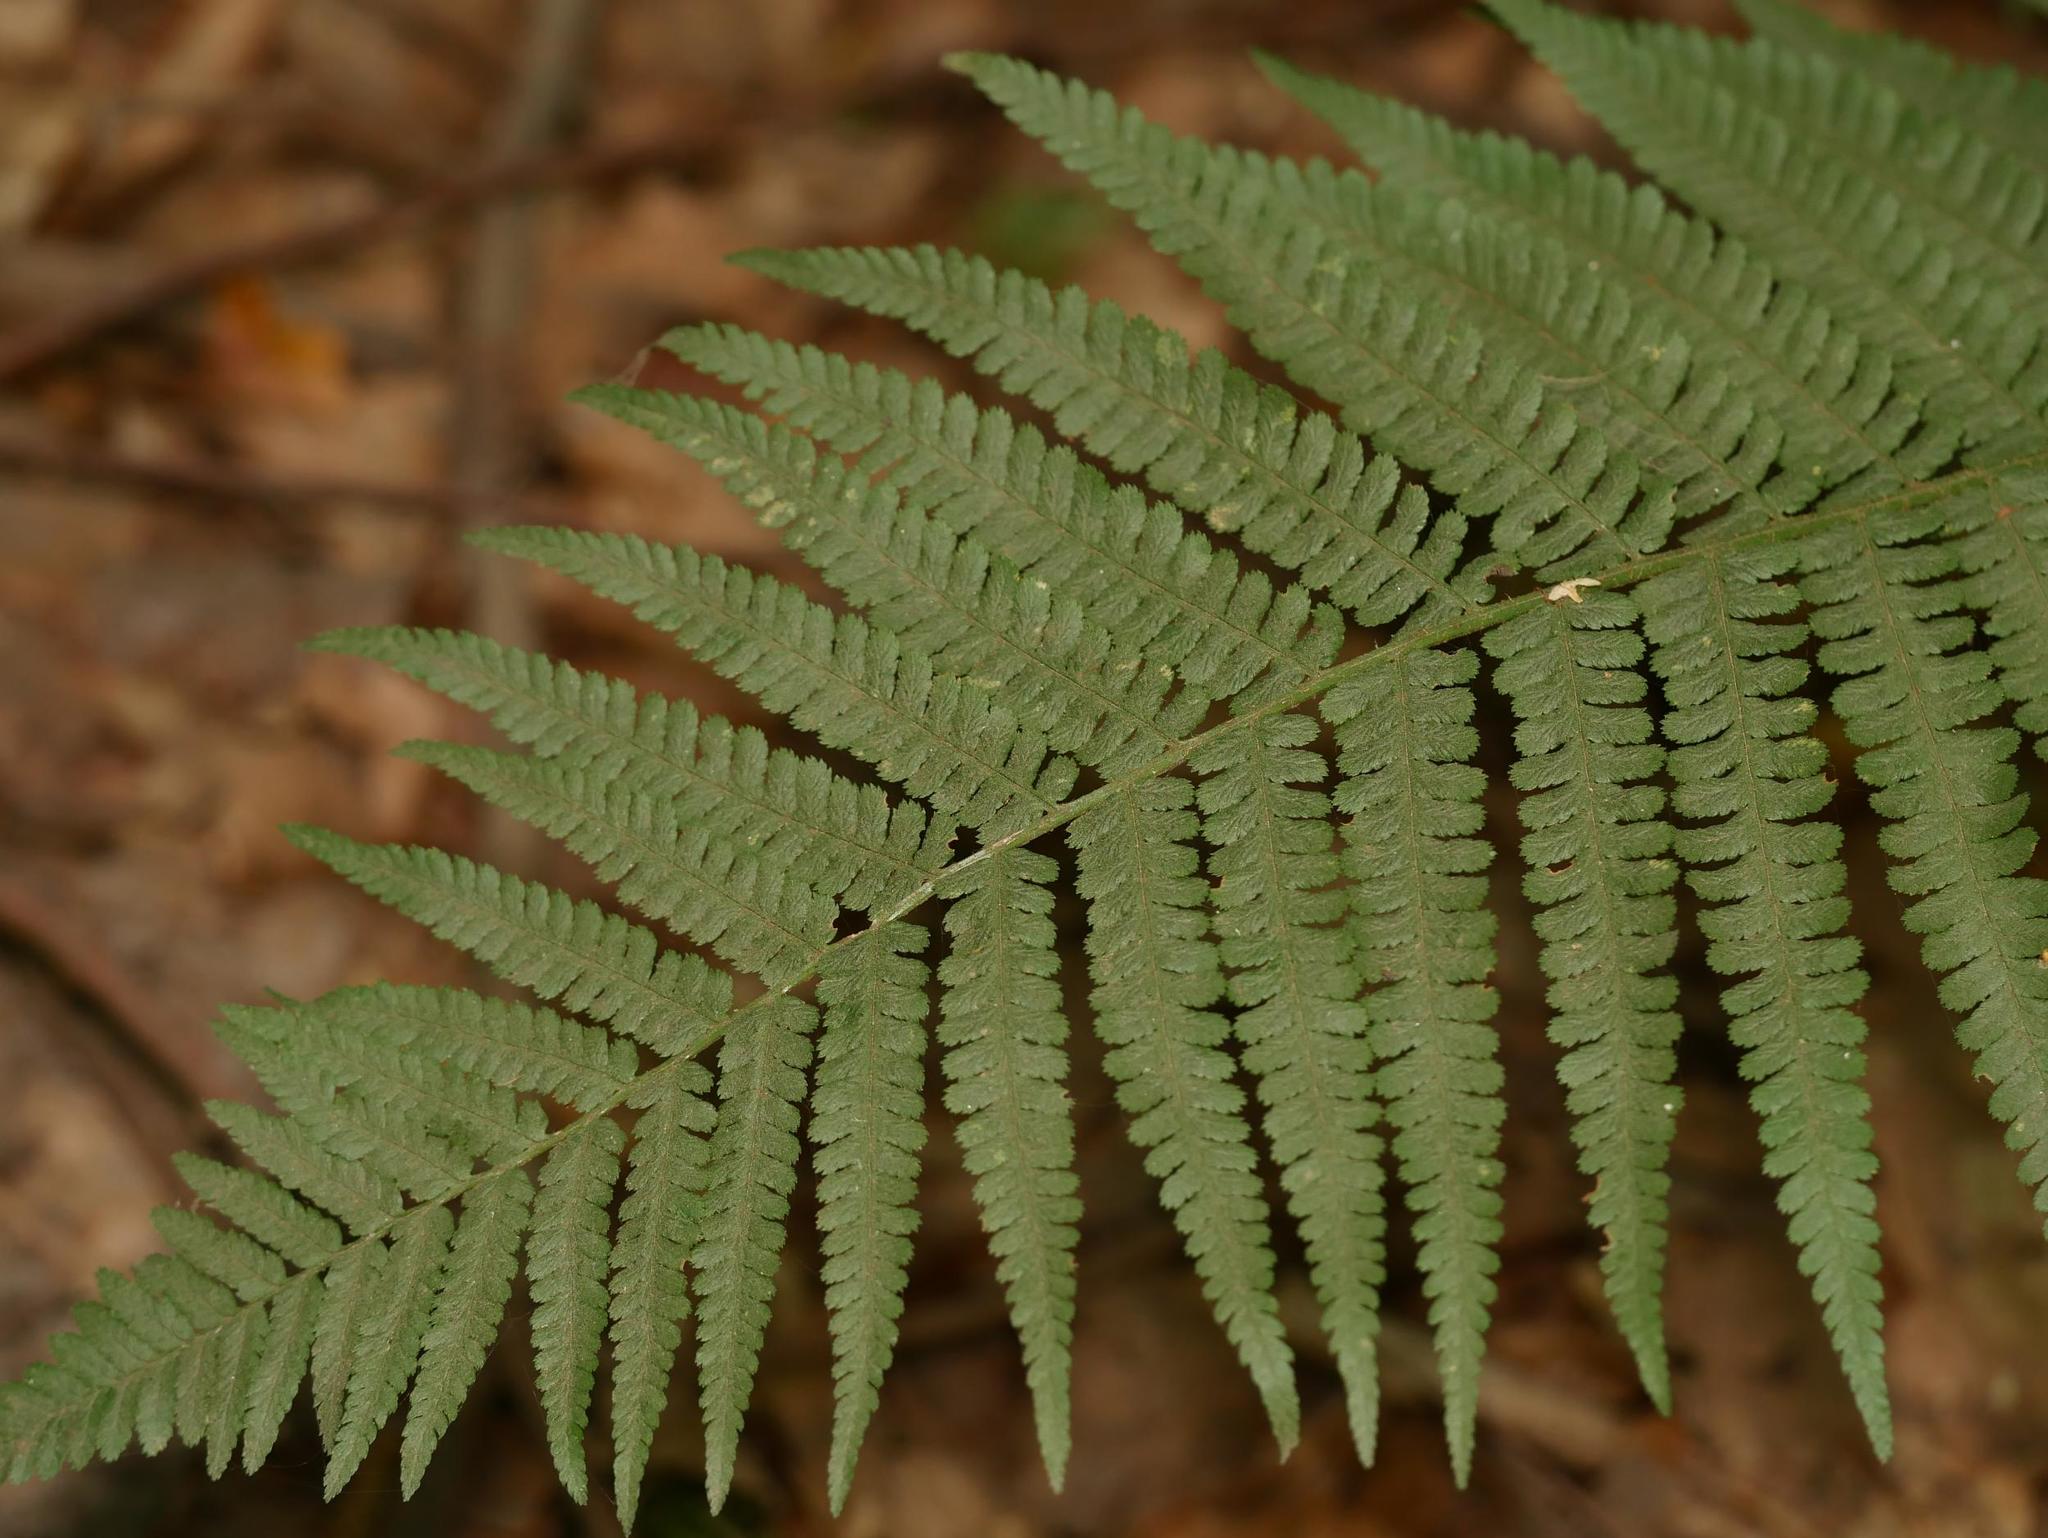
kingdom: Plantae
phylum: Tracheophyta
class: Polypodiopsida
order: Polypodiales
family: Dryopteridaceae
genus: Dryopteris
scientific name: Dryopteris filix-mas
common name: Male fern
